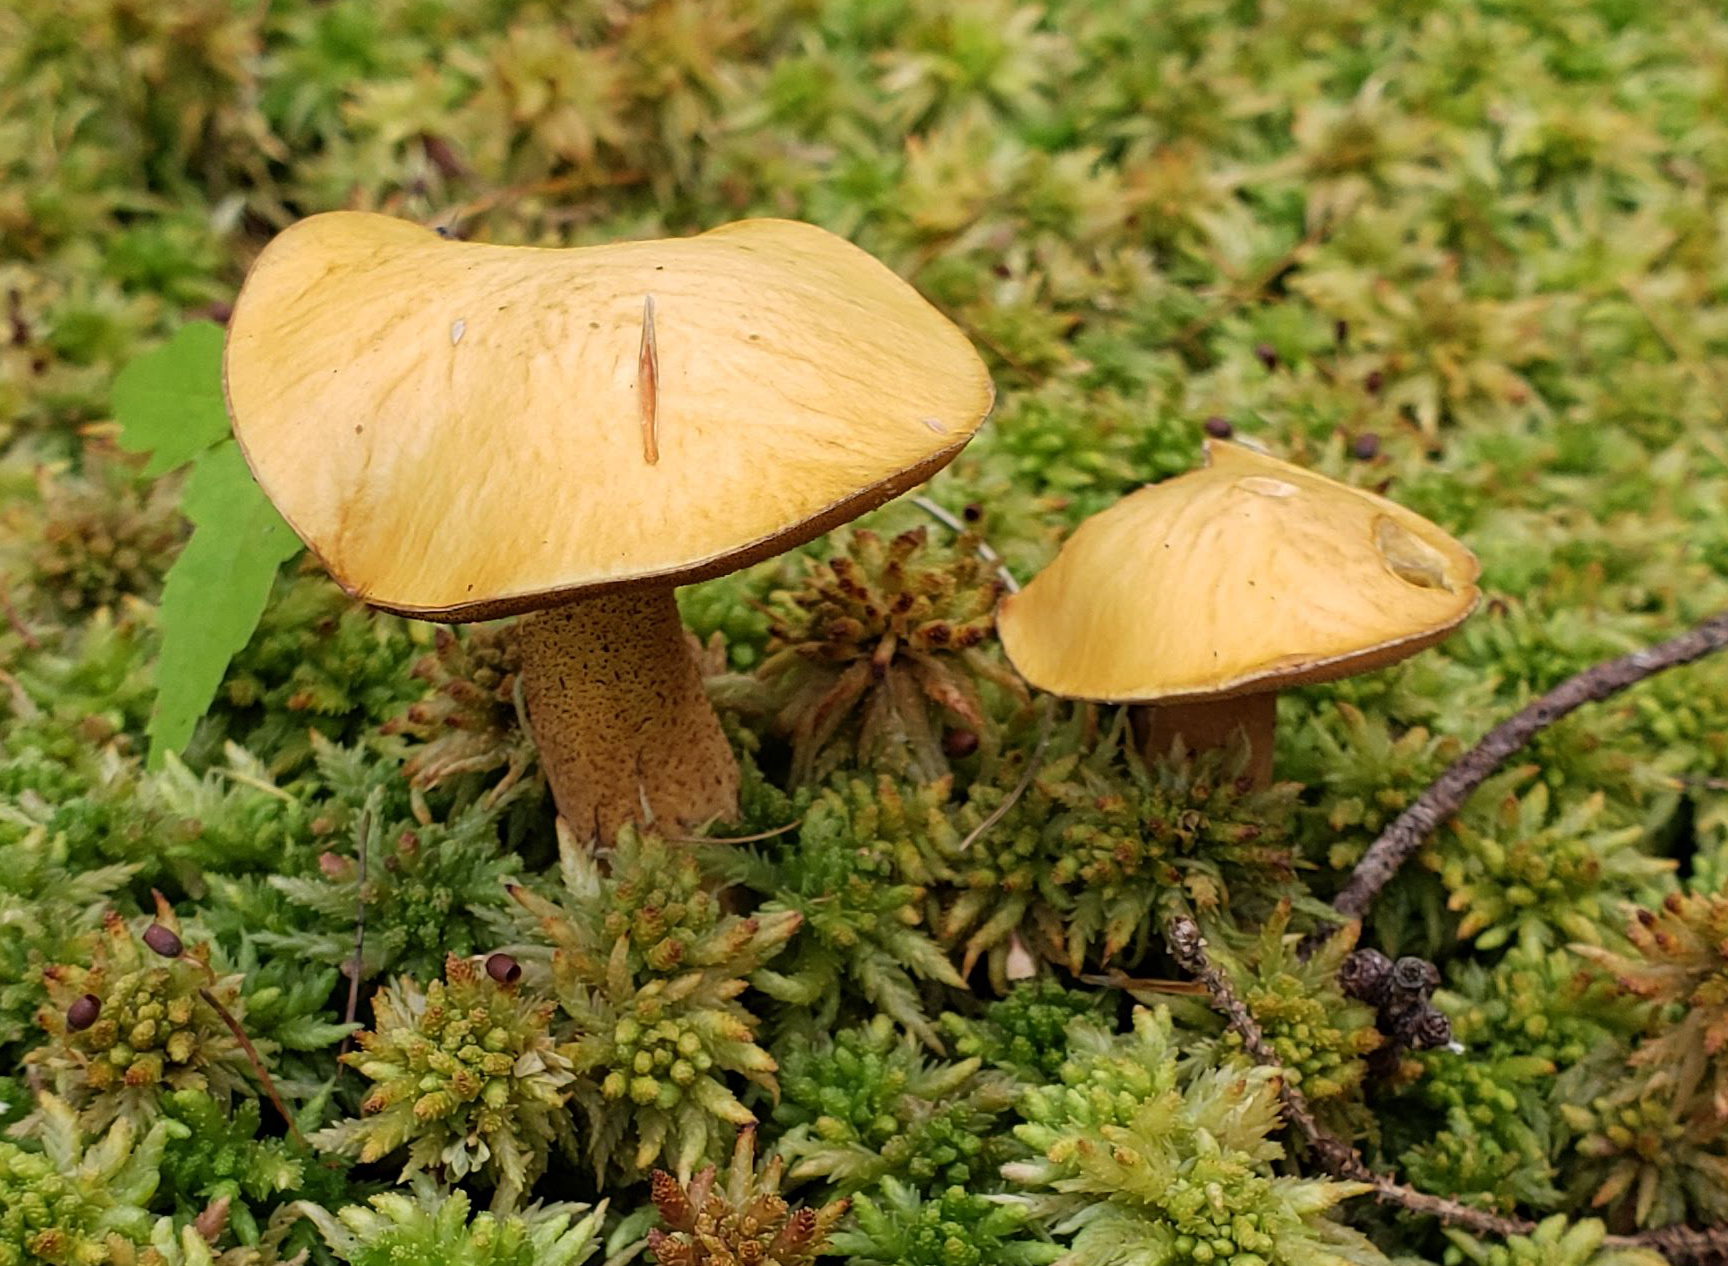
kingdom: Fungi
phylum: Basidiomycota
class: Agaricomycetes
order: Boletales
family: Suillaceae
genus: Suillus
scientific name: Suillus punctipes
